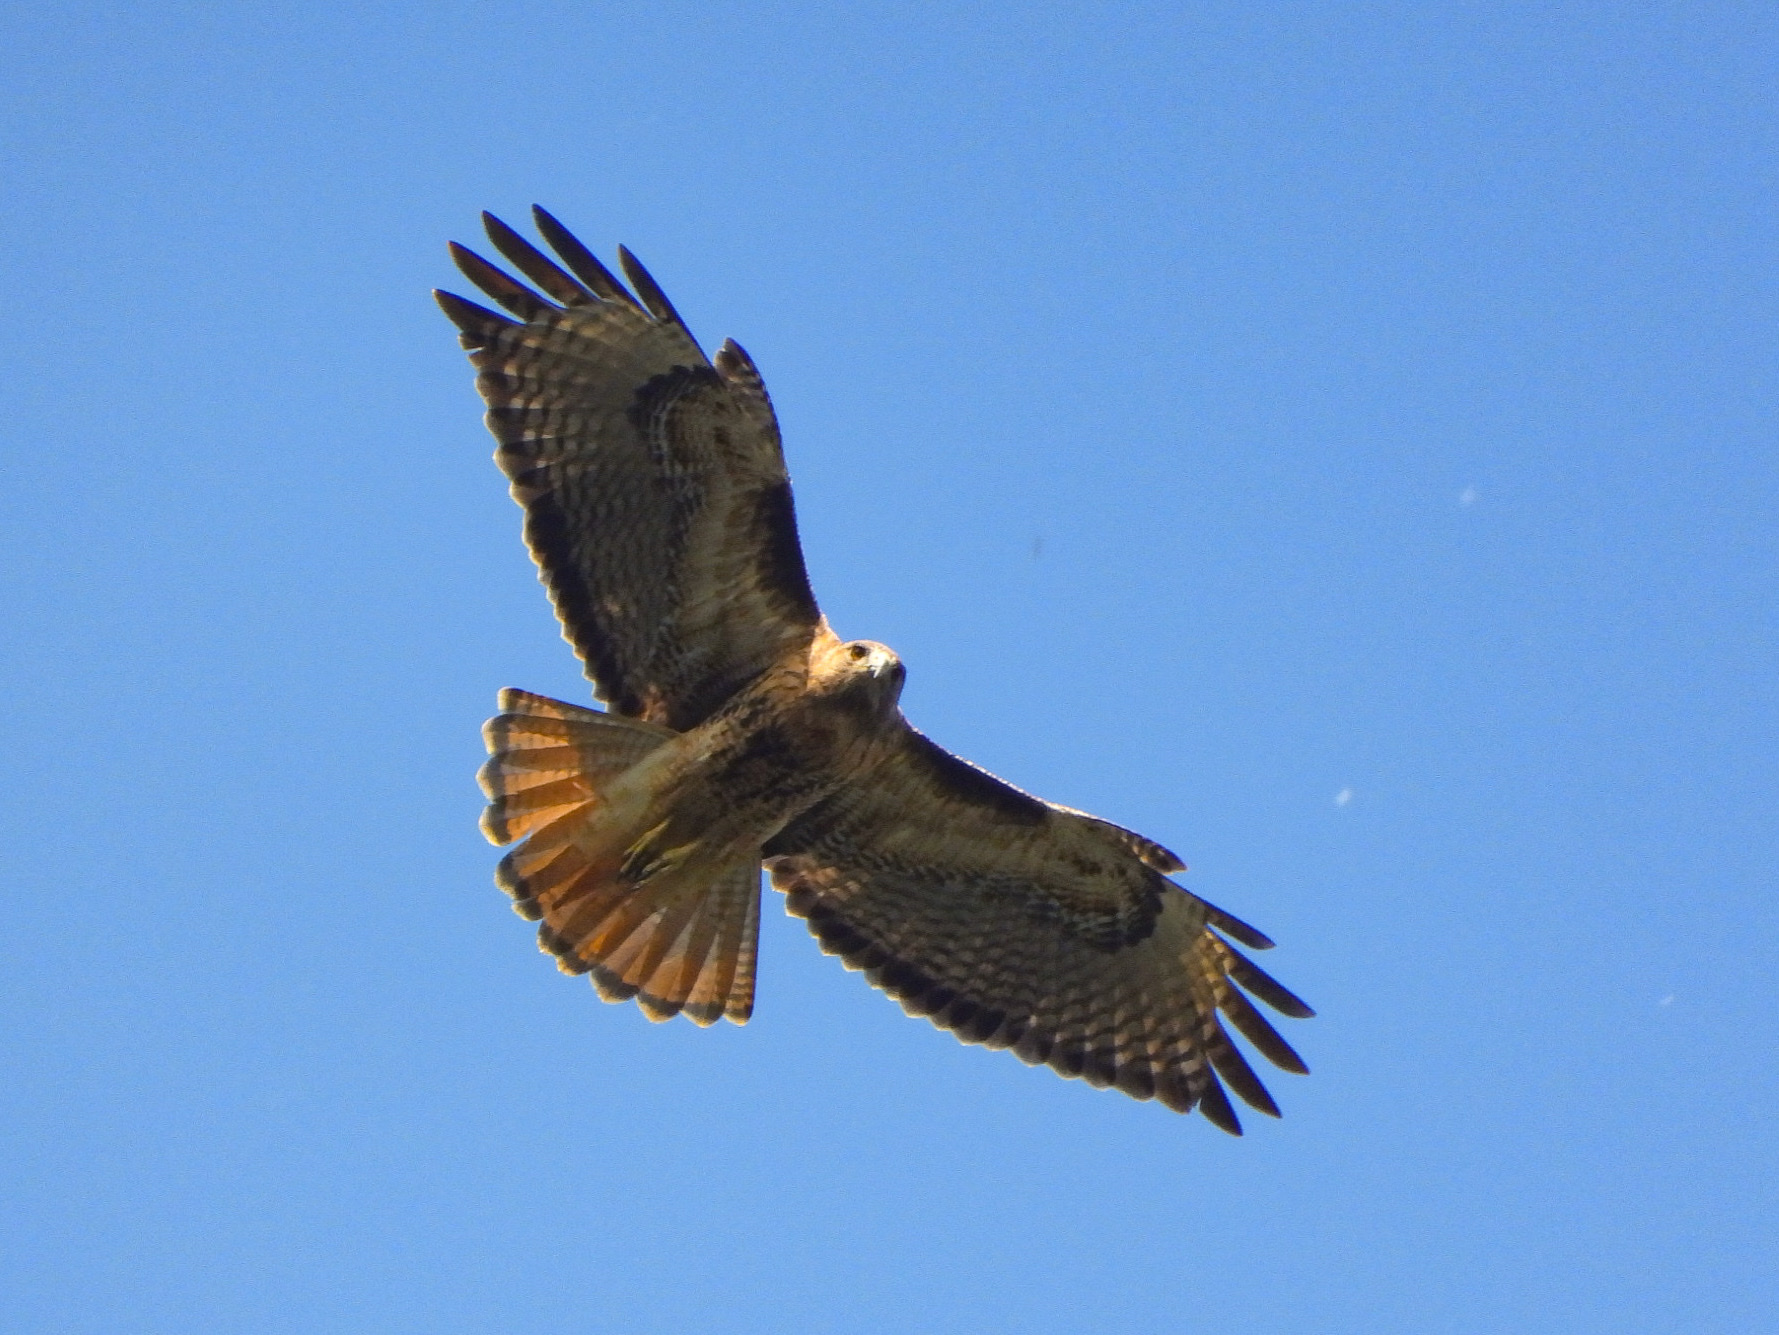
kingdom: Animalia
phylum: Chordata
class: Aves
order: Accipitriformes
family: Accipitridae
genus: Buteo
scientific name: Buteo jamaicensis
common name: Red-tailed hawk
